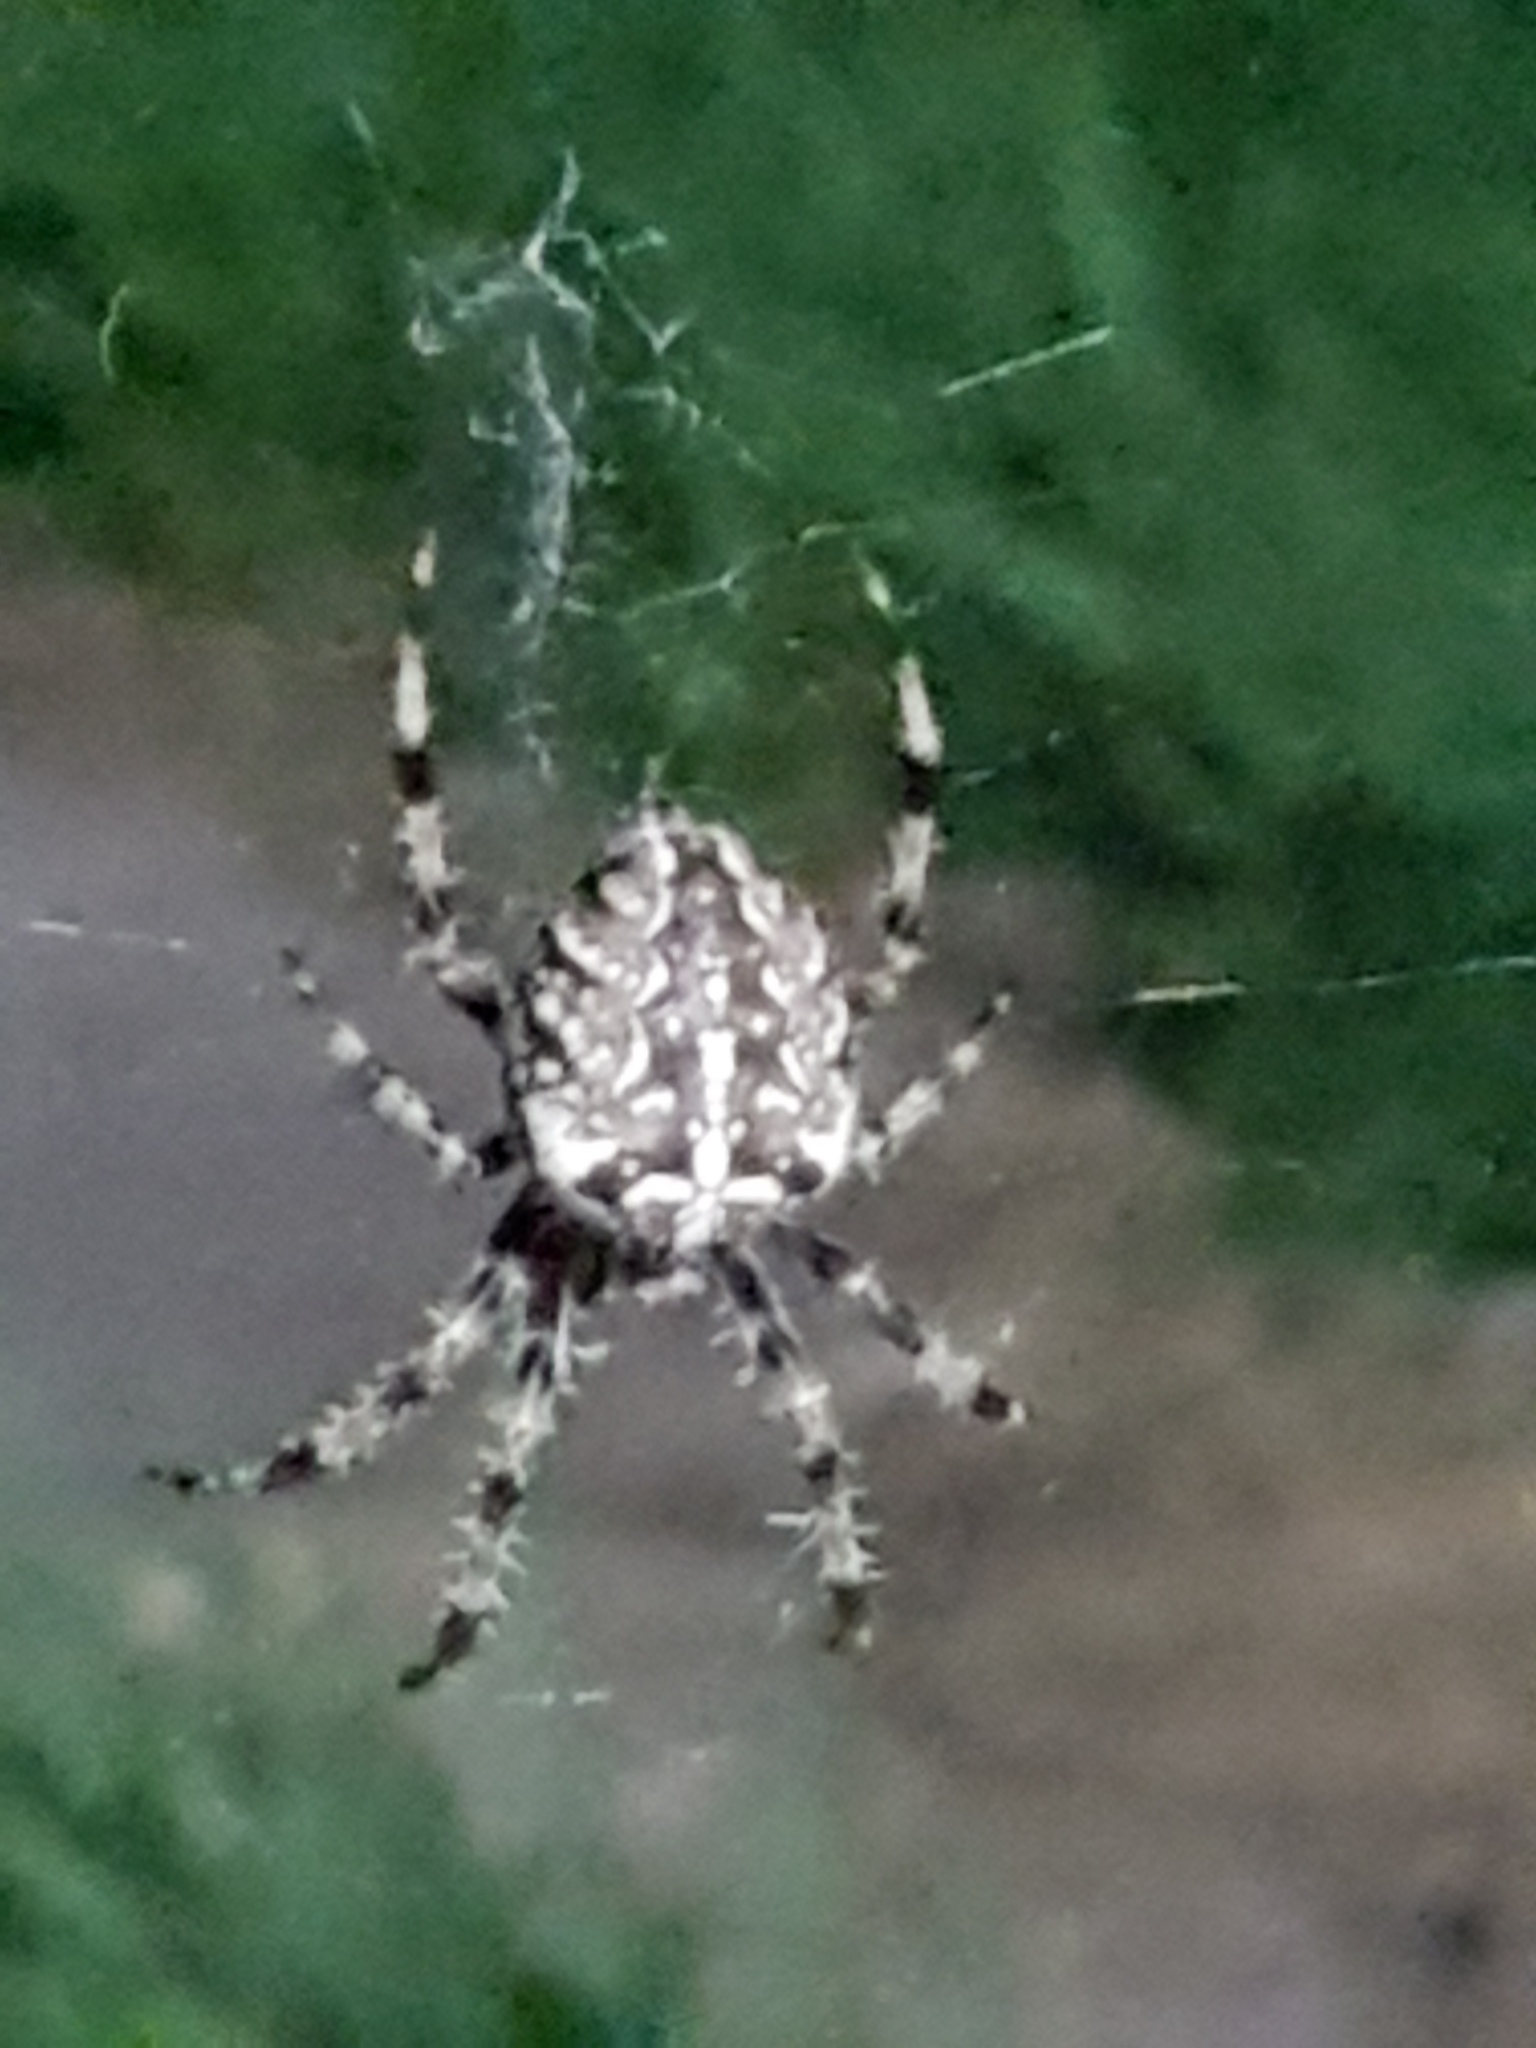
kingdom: Animalia
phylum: Arthropoda
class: Arachnida
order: Araneae
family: Araneidae
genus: Araneus
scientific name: Araneus diadematus
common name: Cross orbweaver
